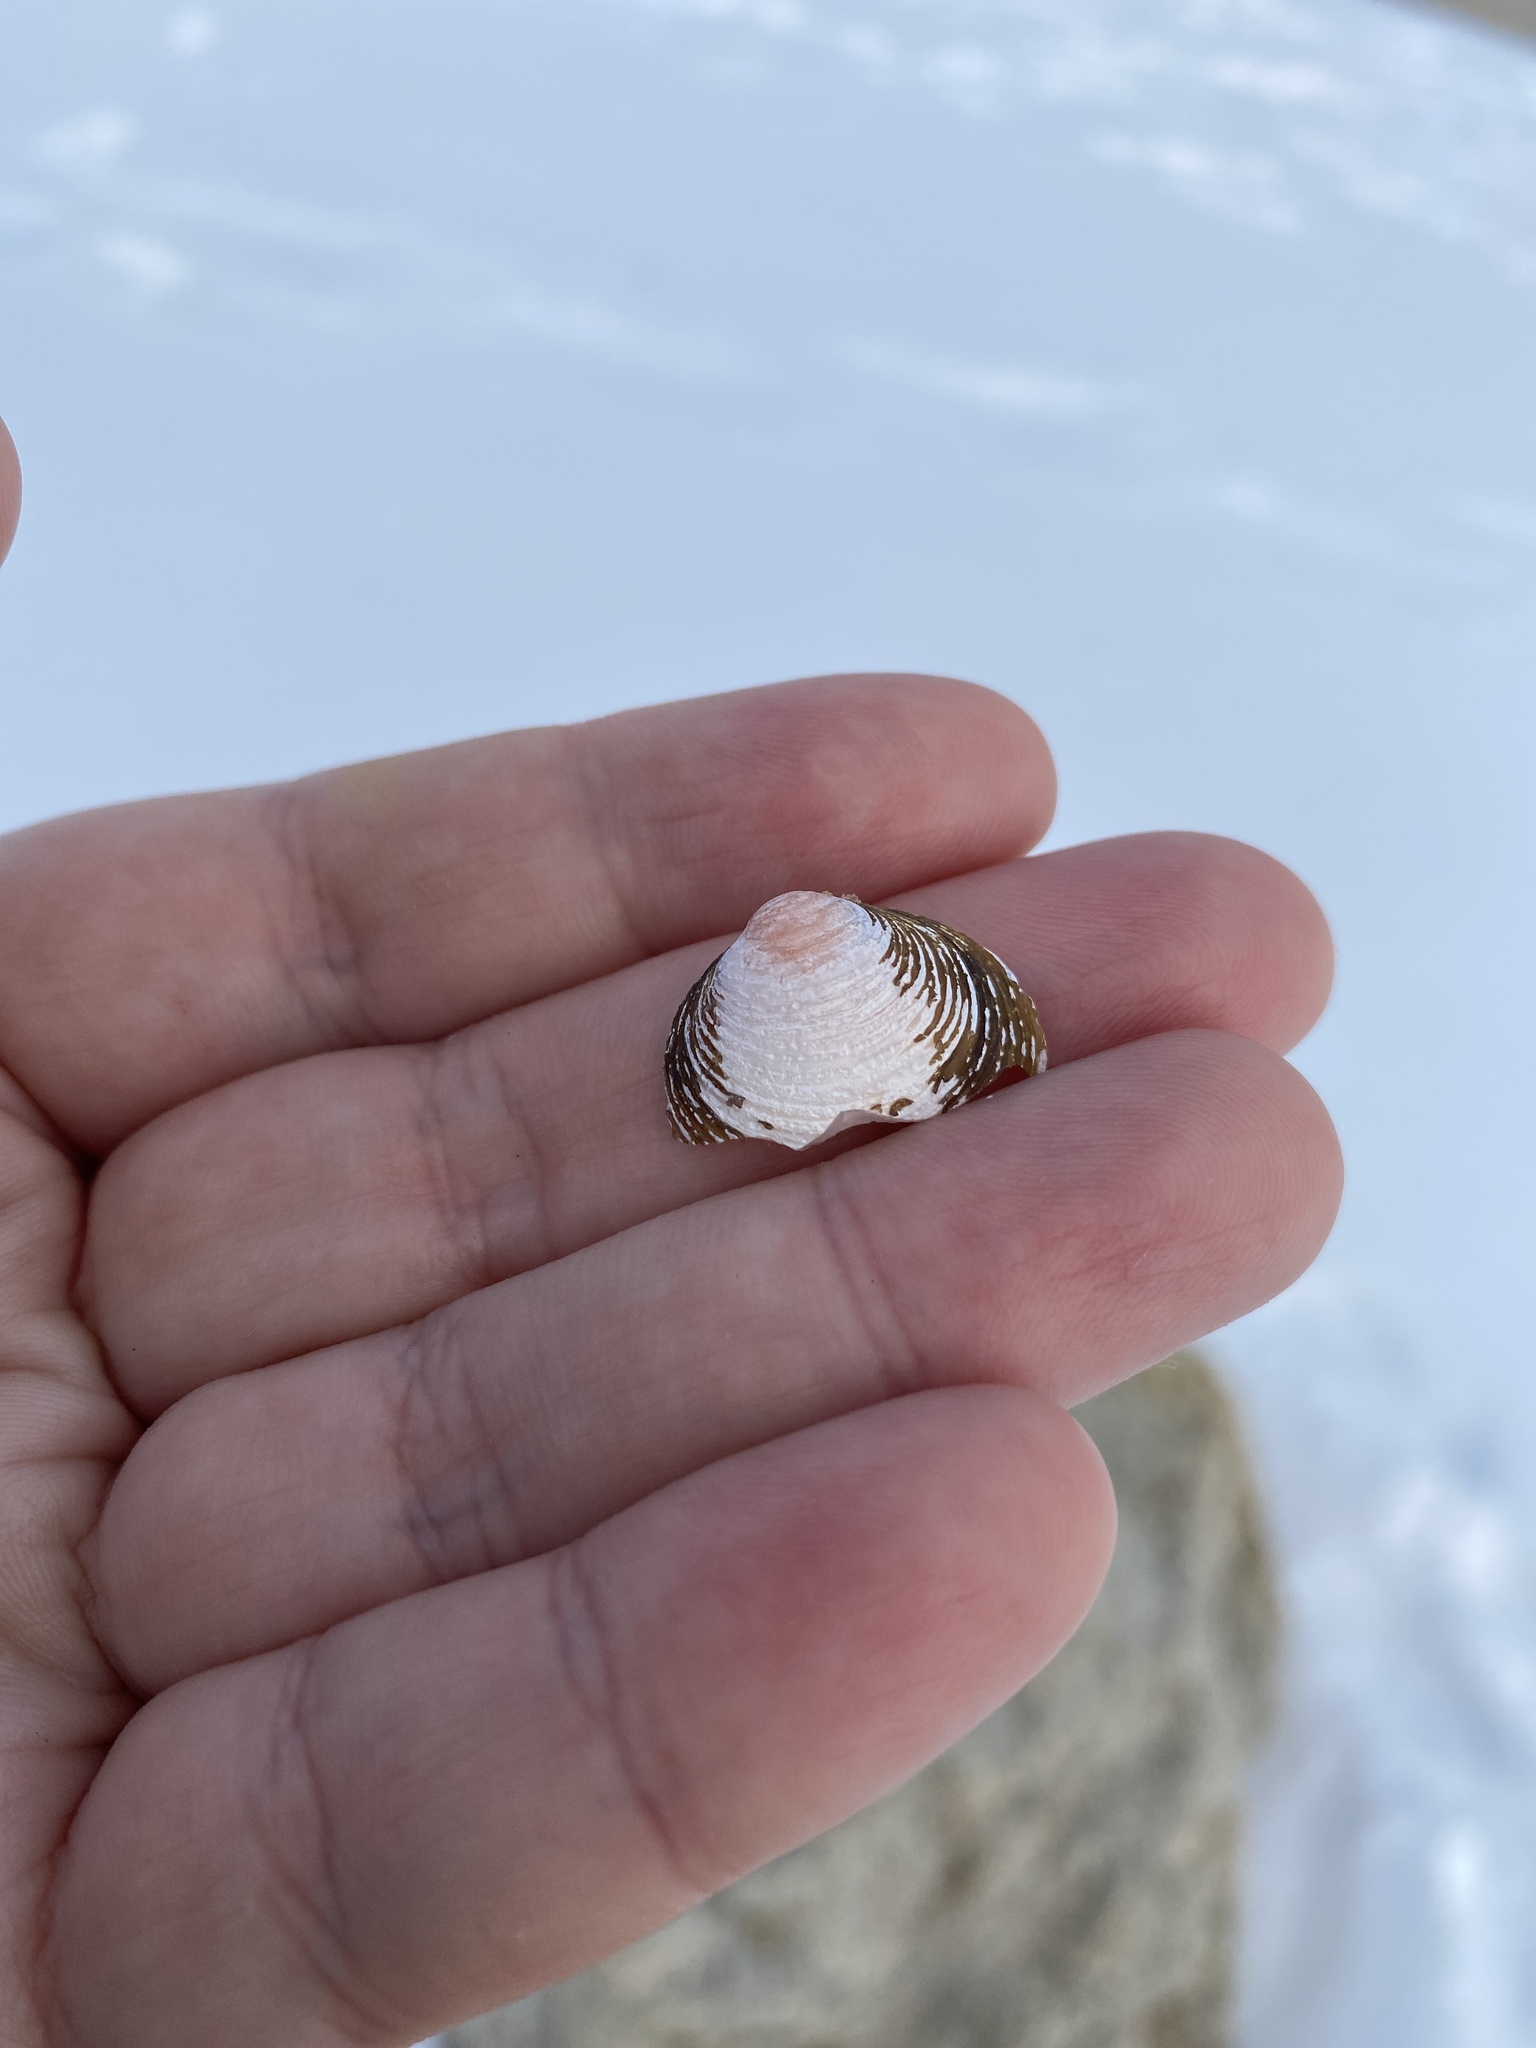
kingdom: Animalia
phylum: Mollusca
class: Bivalvia
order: Venerida
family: Cyrenidae
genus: Corbicula
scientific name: Corbicula fluminea
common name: Asian clam
